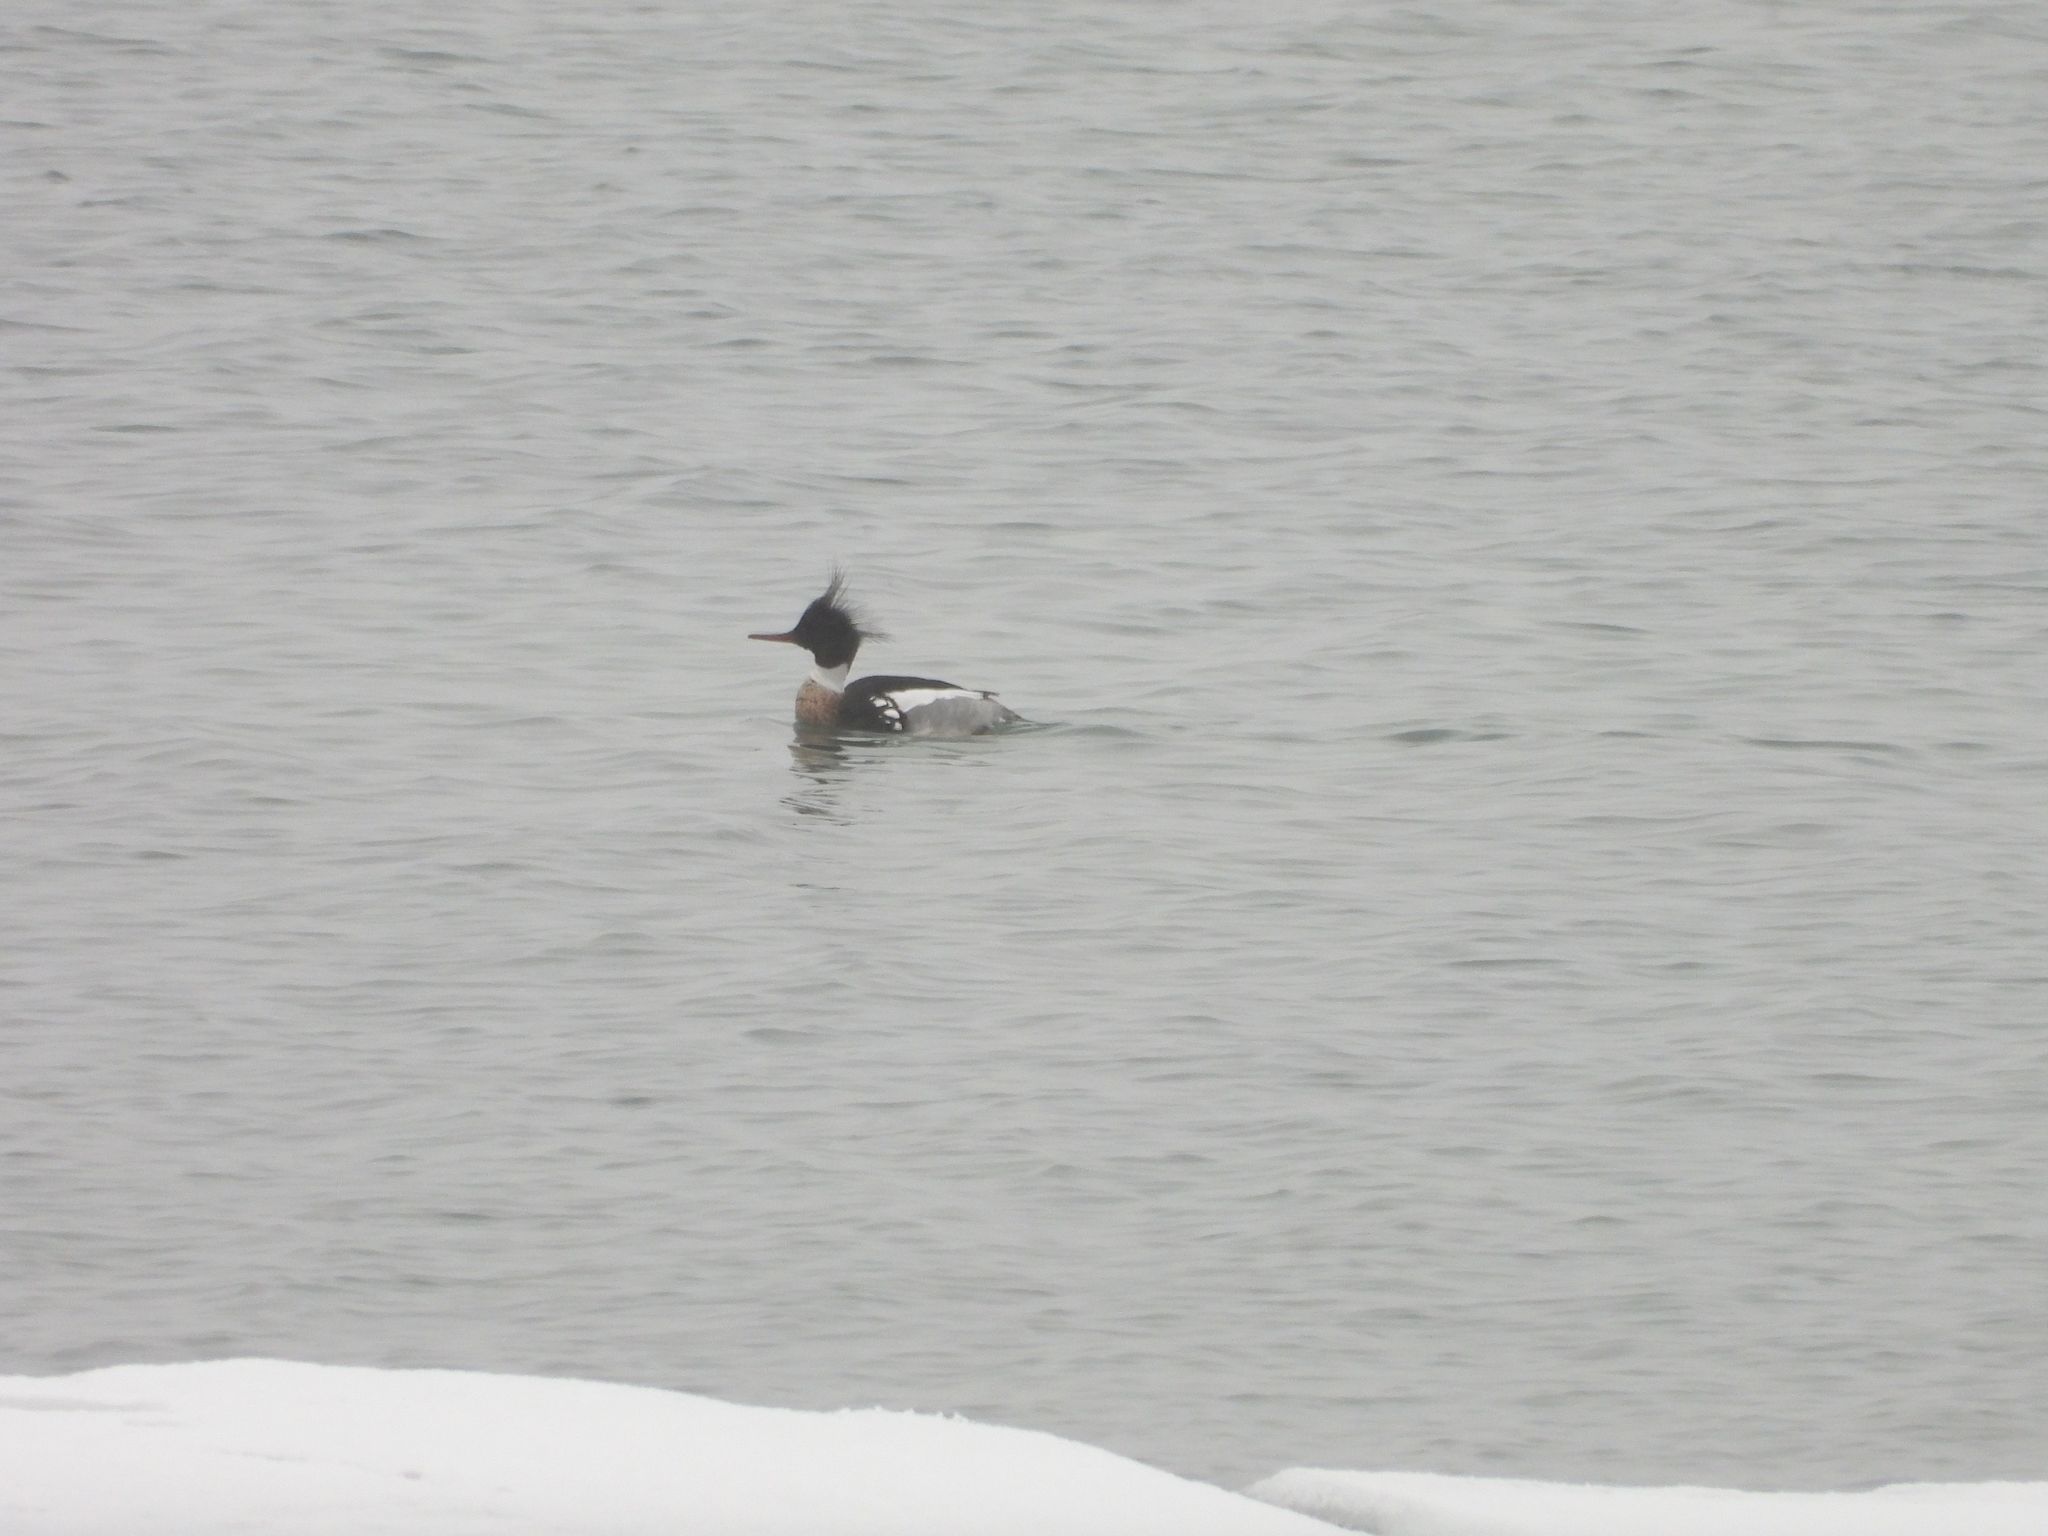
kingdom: Animalia
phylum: Chordata
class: Aves
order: Anseriformes
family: Anatidae
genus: Mergus
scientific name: Mergus serrator
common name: Red-breasted merganser
